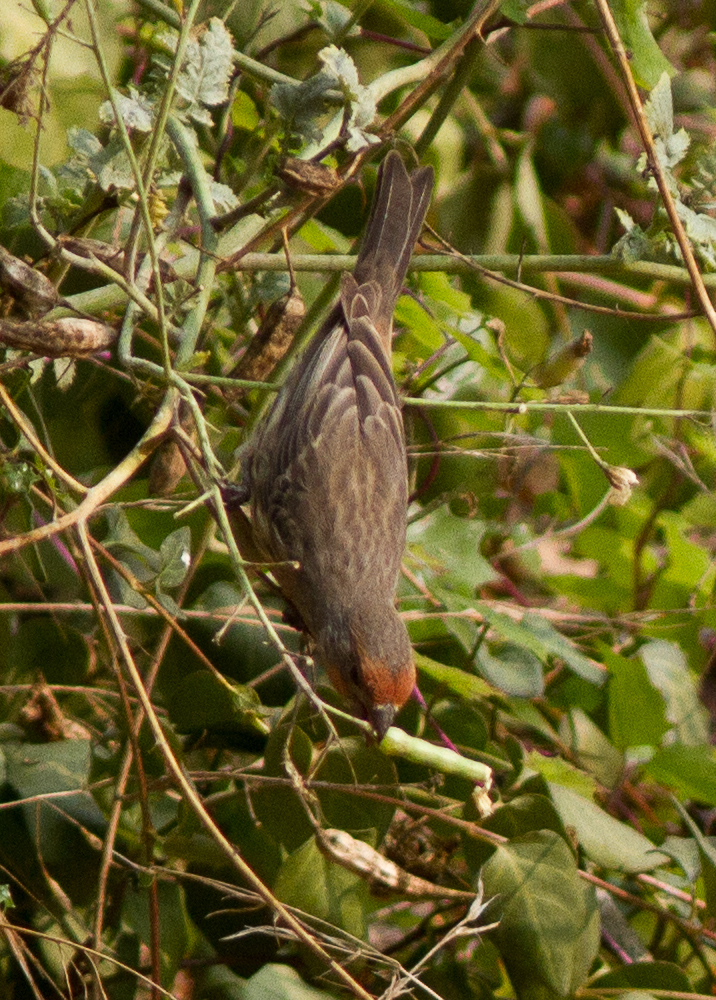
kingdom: Animalia
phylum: Chordata
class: Aves
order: Passeriformes
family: Fringillidae
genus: Haemorhous
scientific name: Haemorhous mexicanus
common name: House finch
